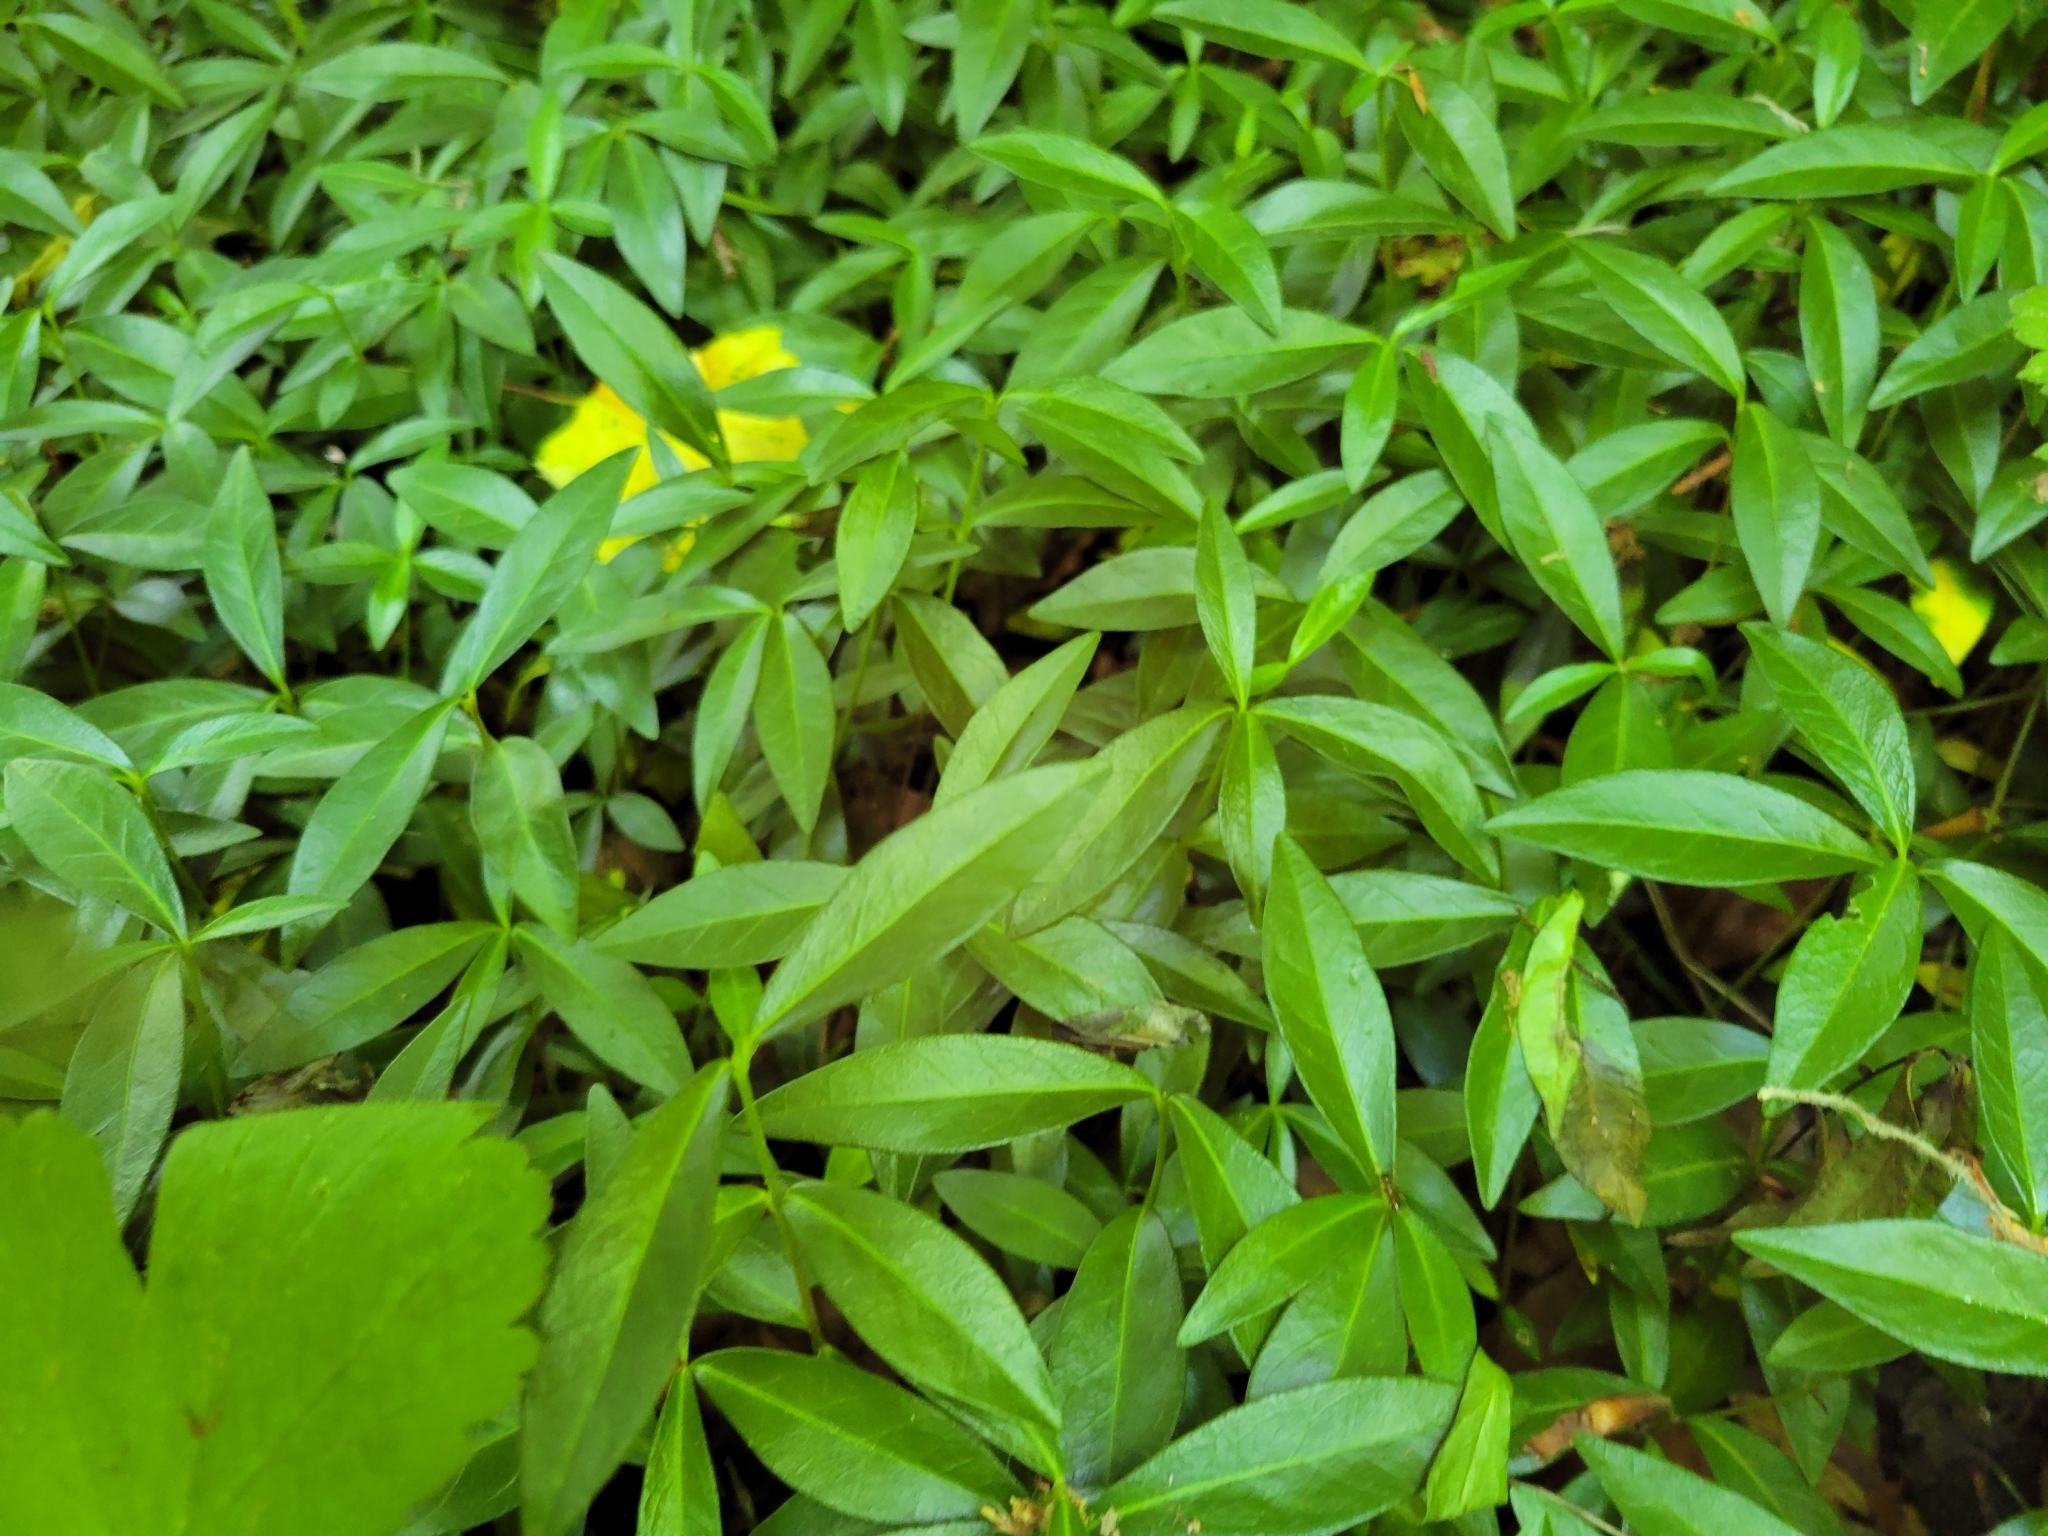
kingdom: Plantae
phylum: Tracheophyta
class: Magnoliopsida
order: Gentianales
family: Apocynaceae
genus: Vinca
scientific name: Vinca minor
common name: Lesser periwinkle
